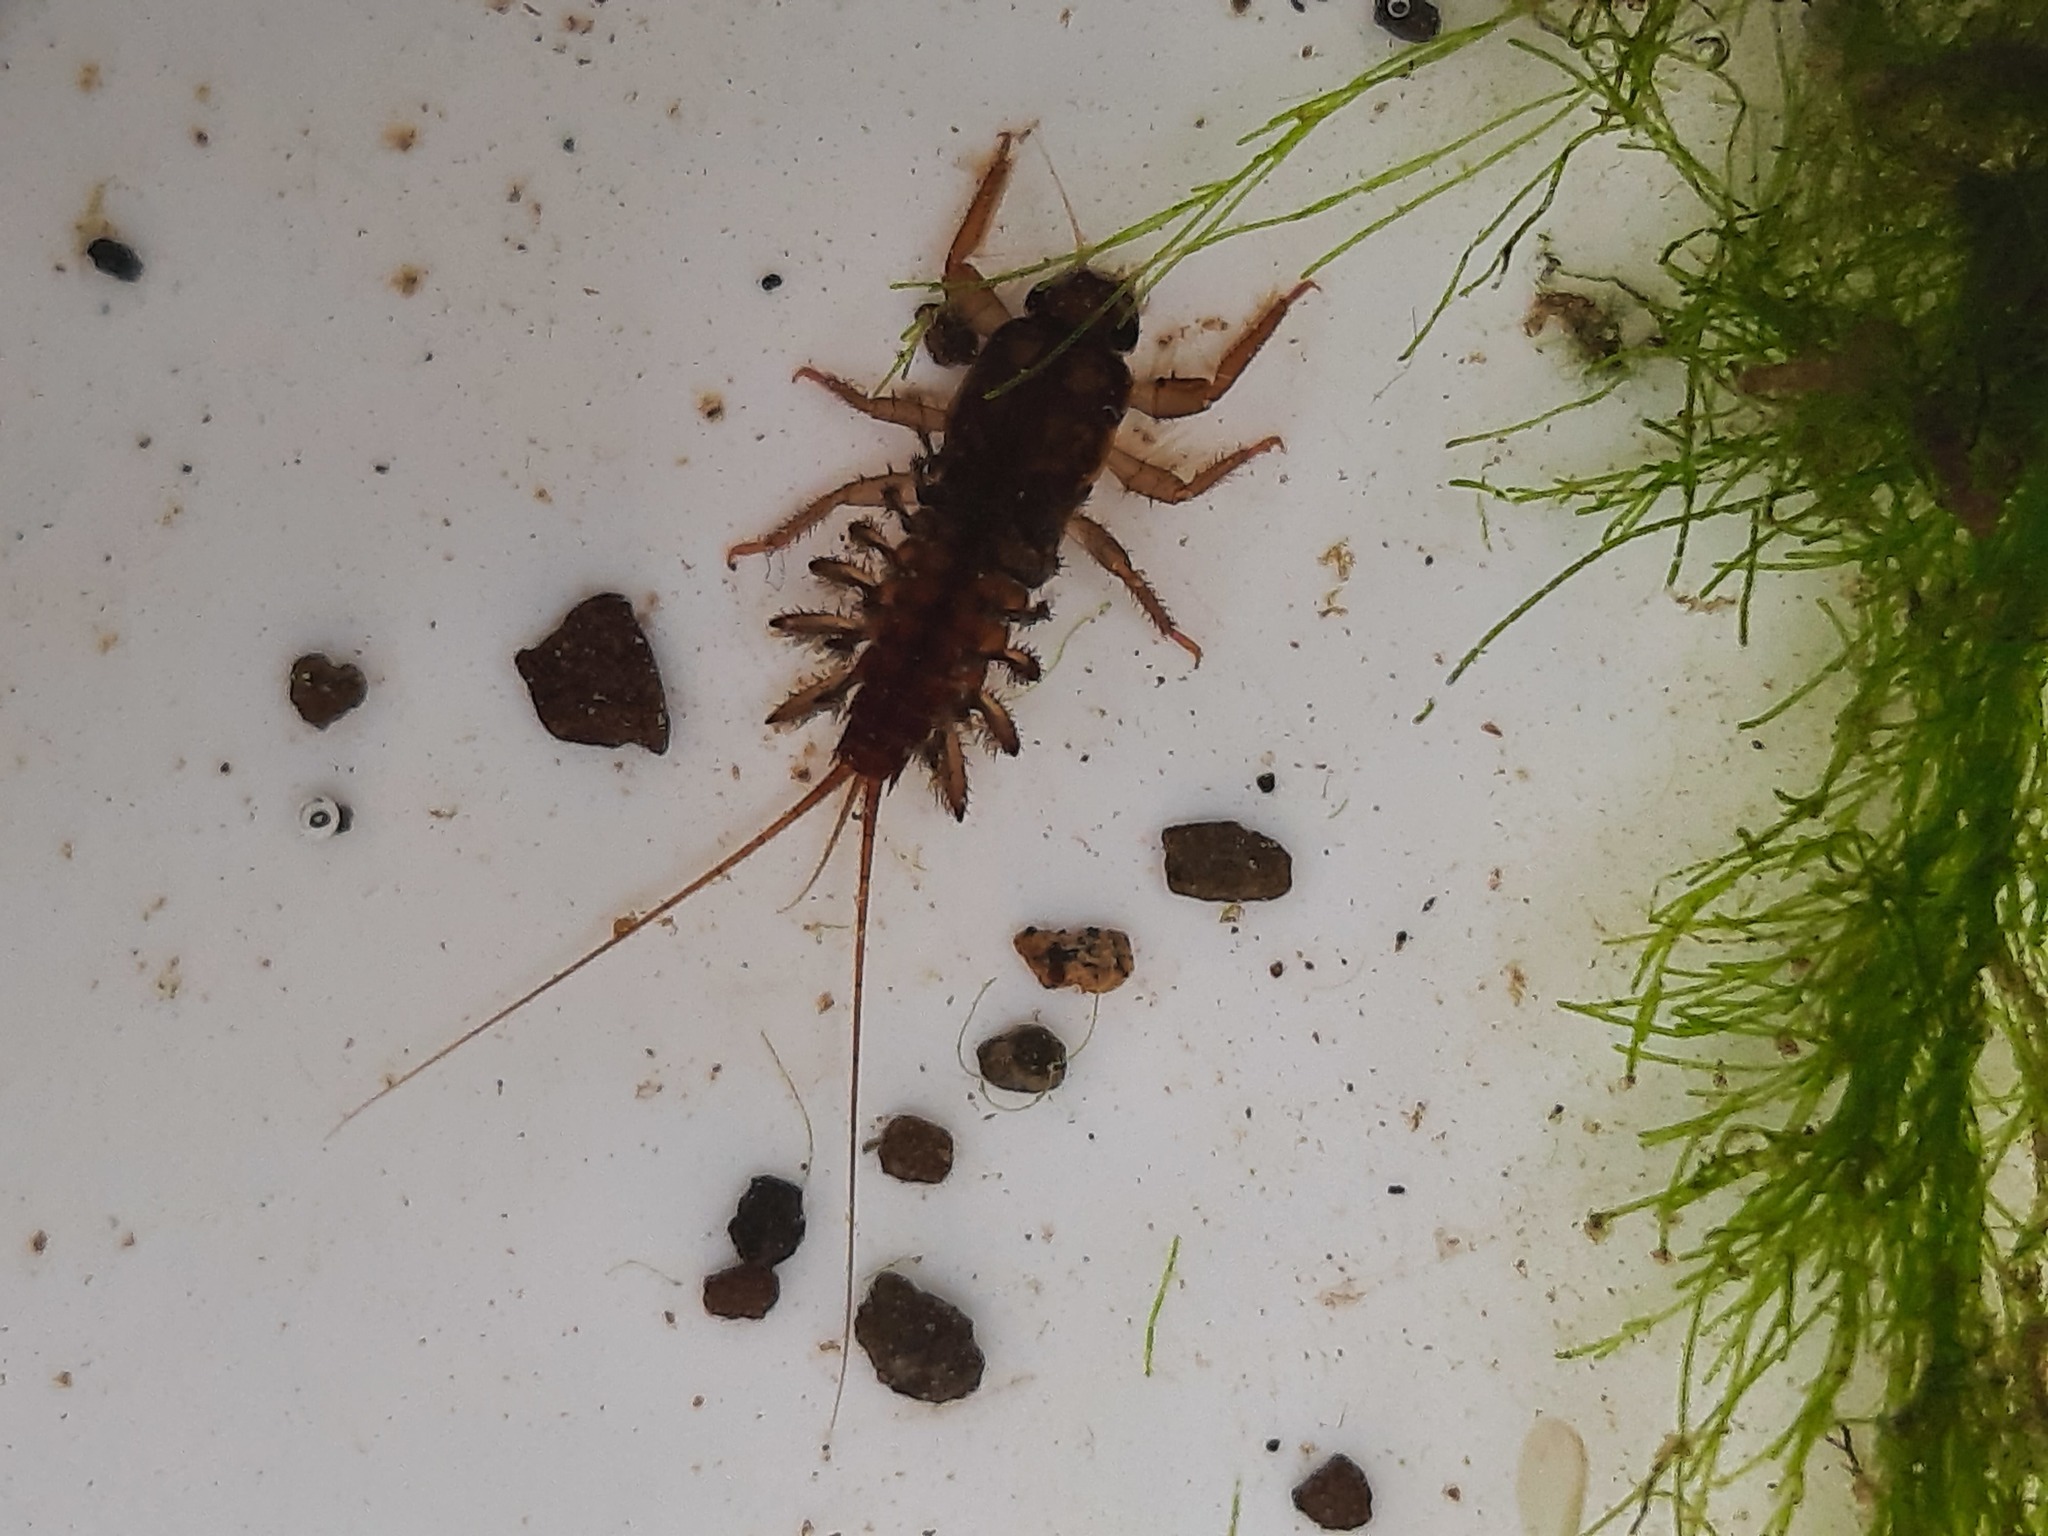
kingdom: Animalia
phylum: Arthropoda
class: Insecta
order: Ephemeroptera
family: Coloburiscidae
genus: Coloburiscus
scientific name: Coloburiscus humeralis
